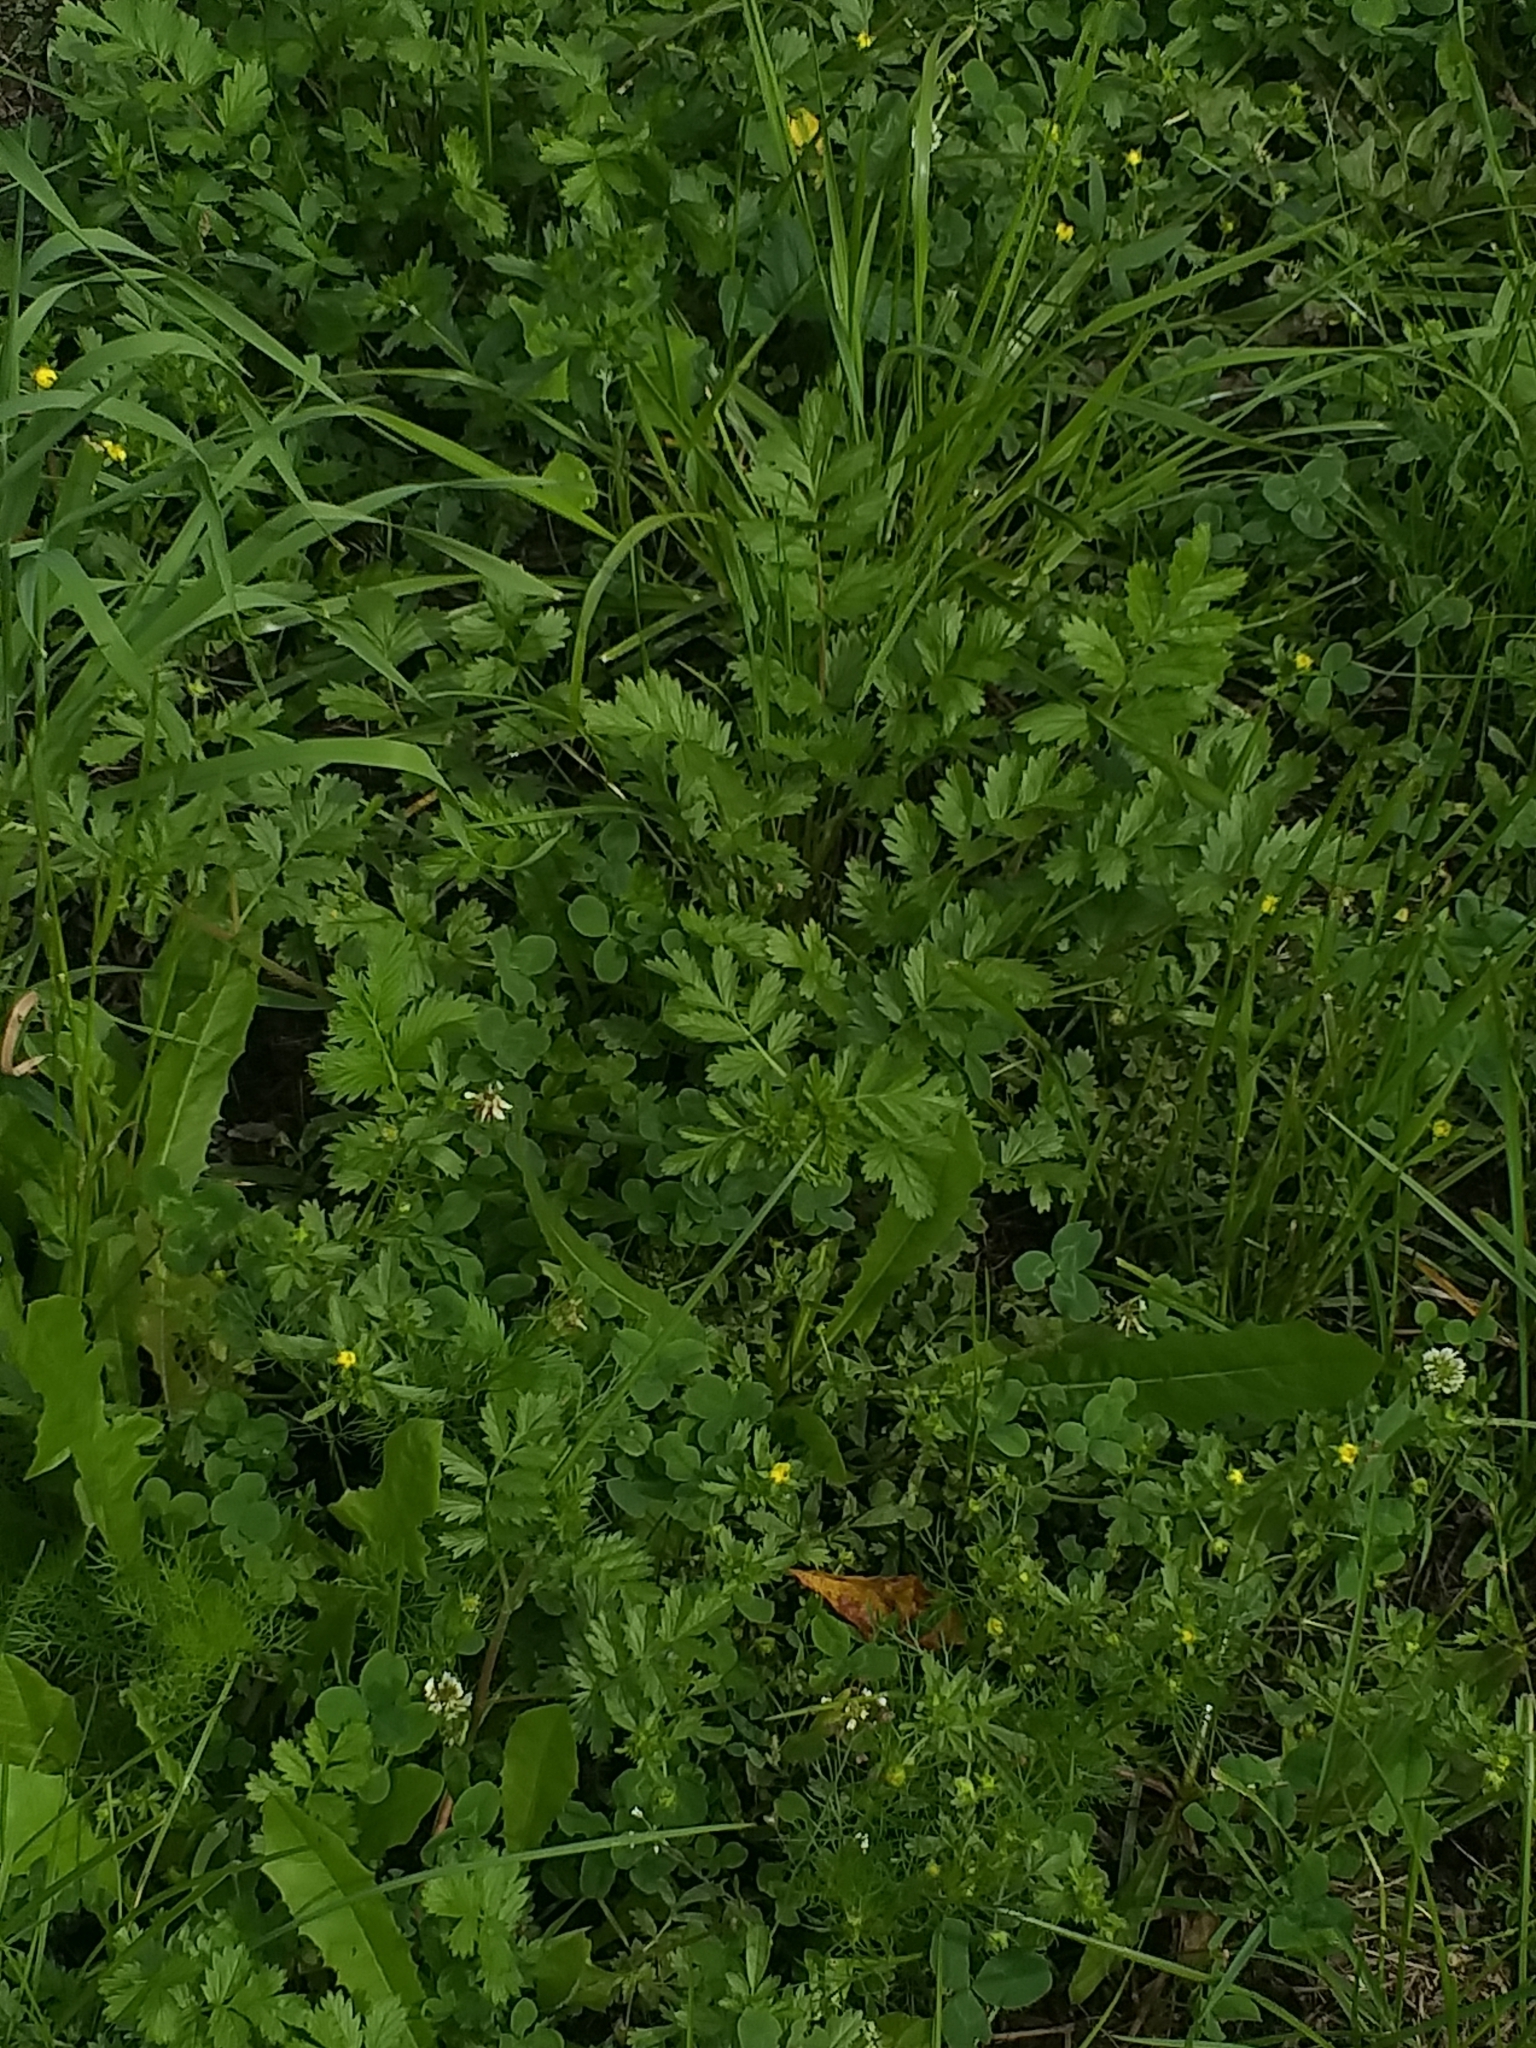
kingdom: Plantae
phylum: Tracheophyta
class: Magnoliopsida
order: Rosales
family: Rosaceae
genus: Potentilla
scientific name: Potentilla supina
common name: Prostrate cinquefoil
